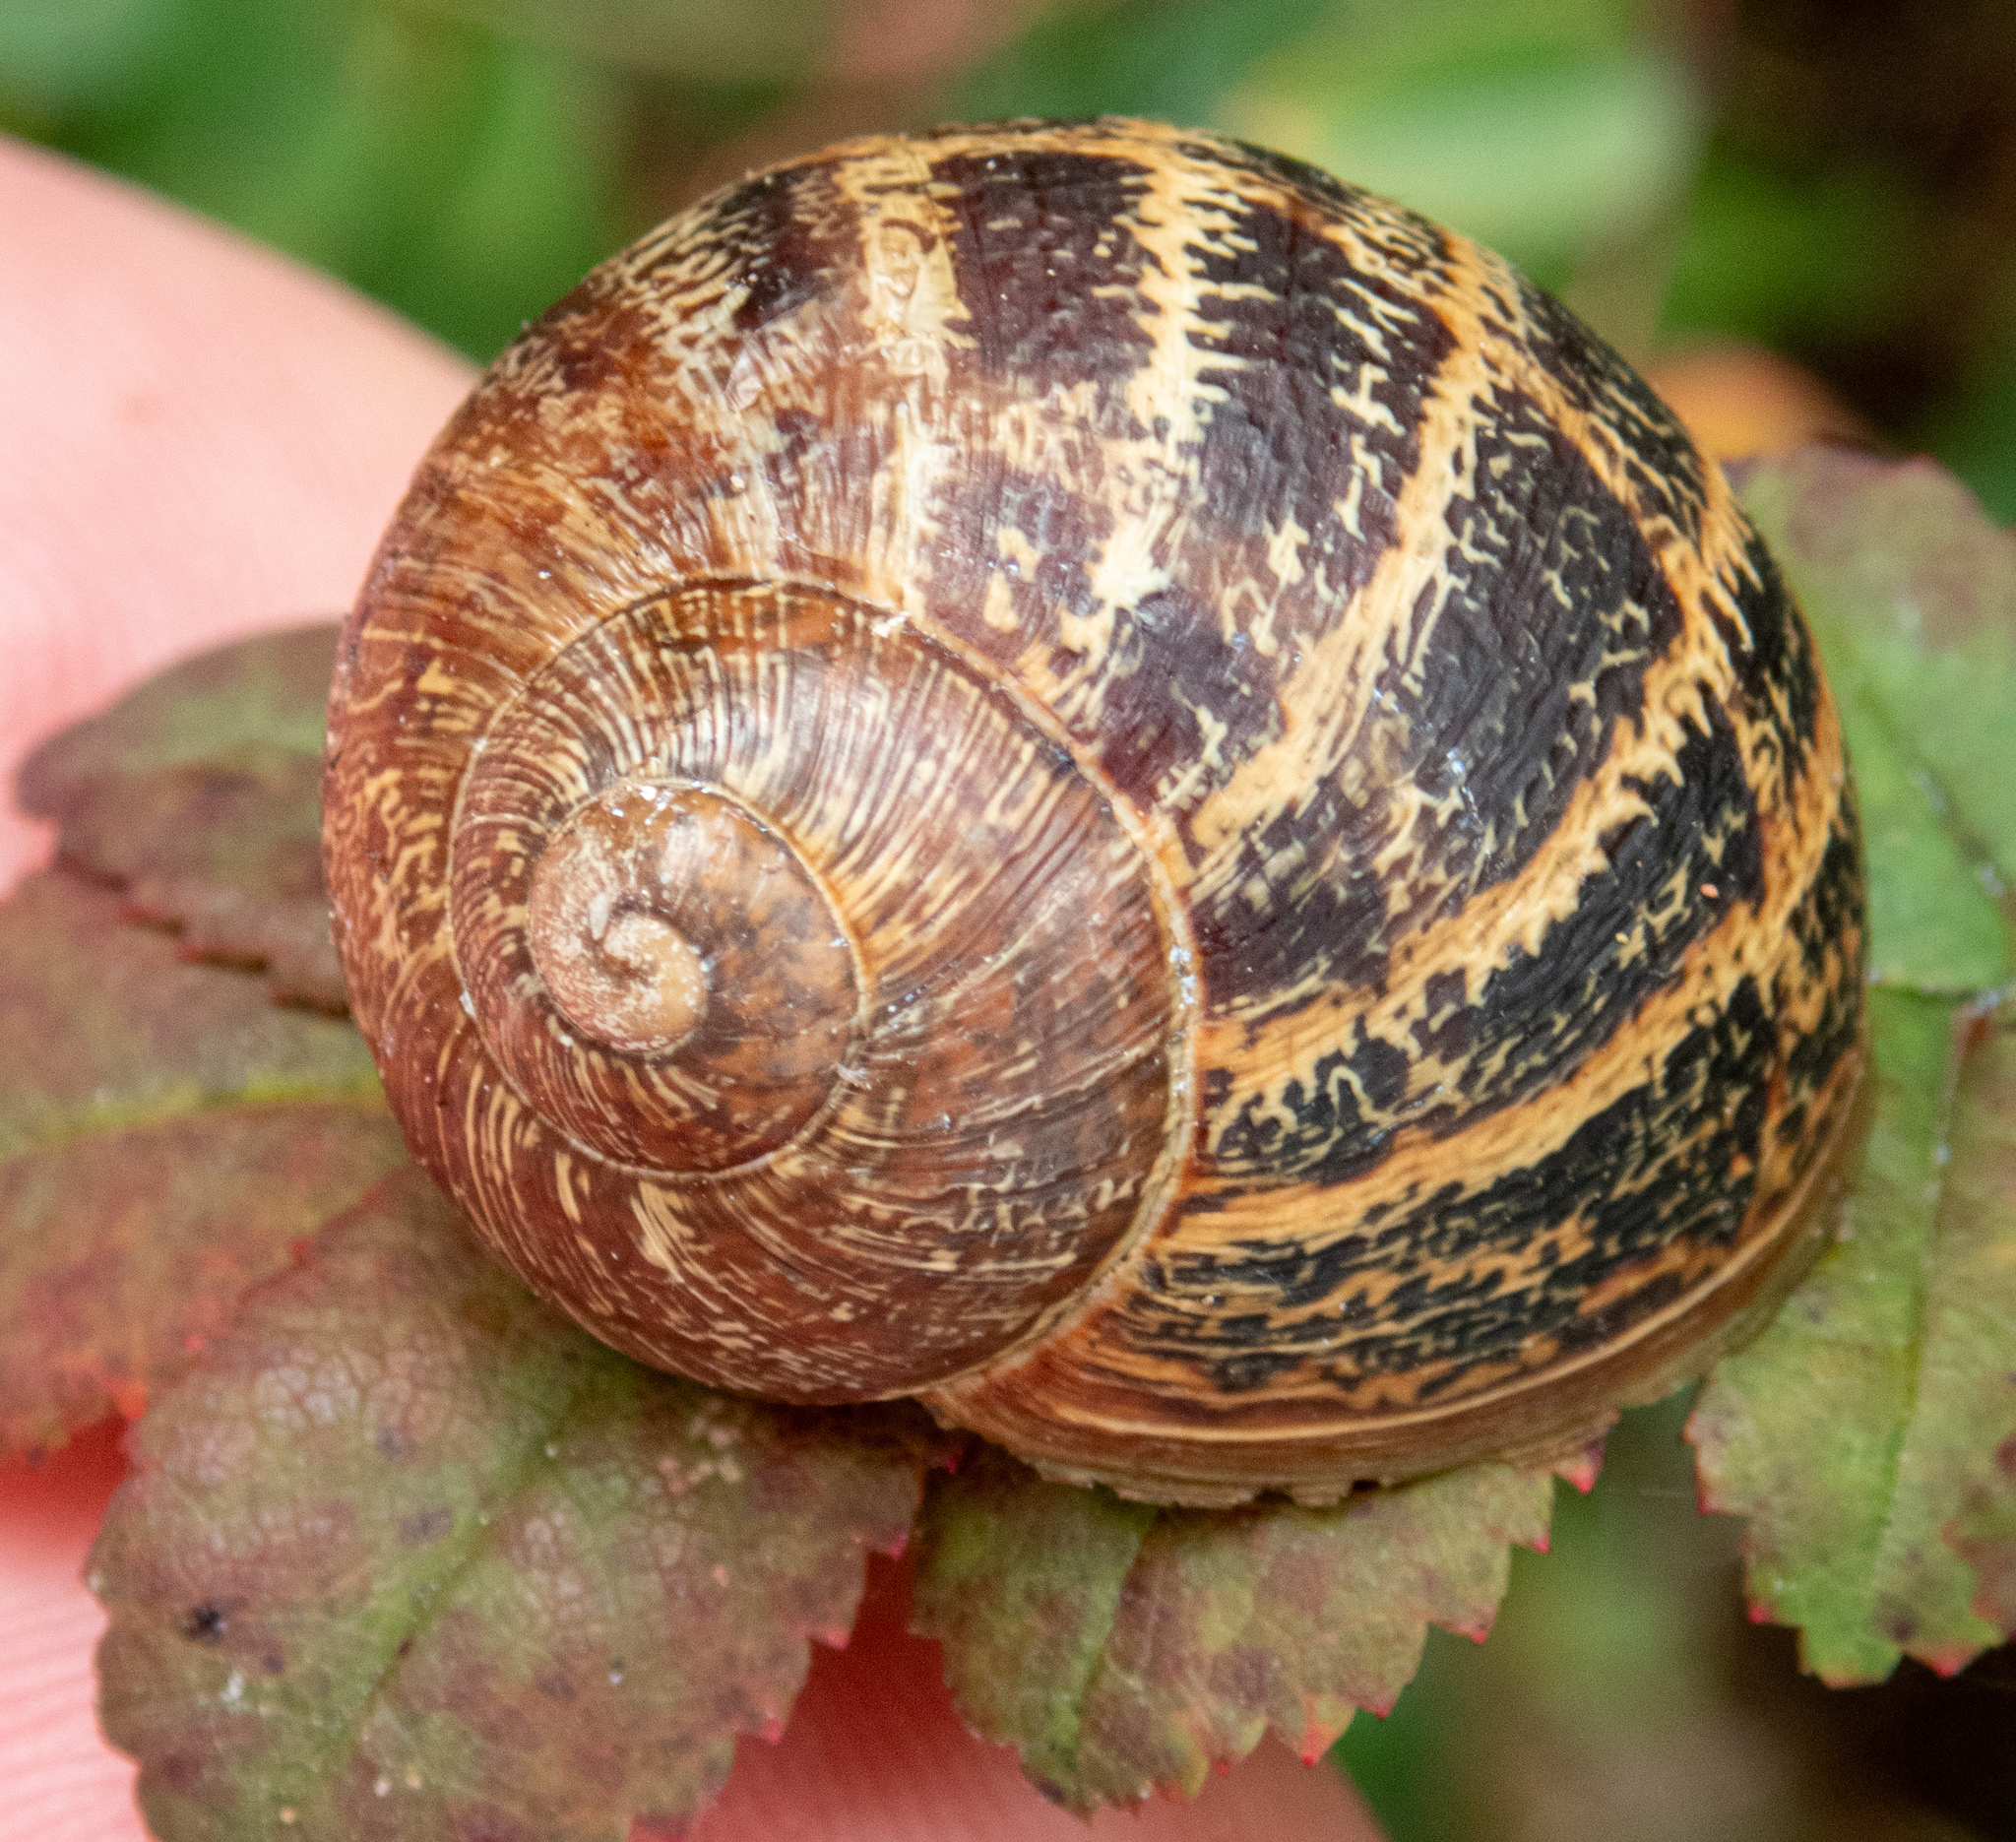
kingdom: Animalia
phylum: Mollusca
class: Gastropoda
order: Stylommatophora
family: Helicidae
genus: Cornu
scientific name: Cornu aspersum
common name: Brown garden snail
